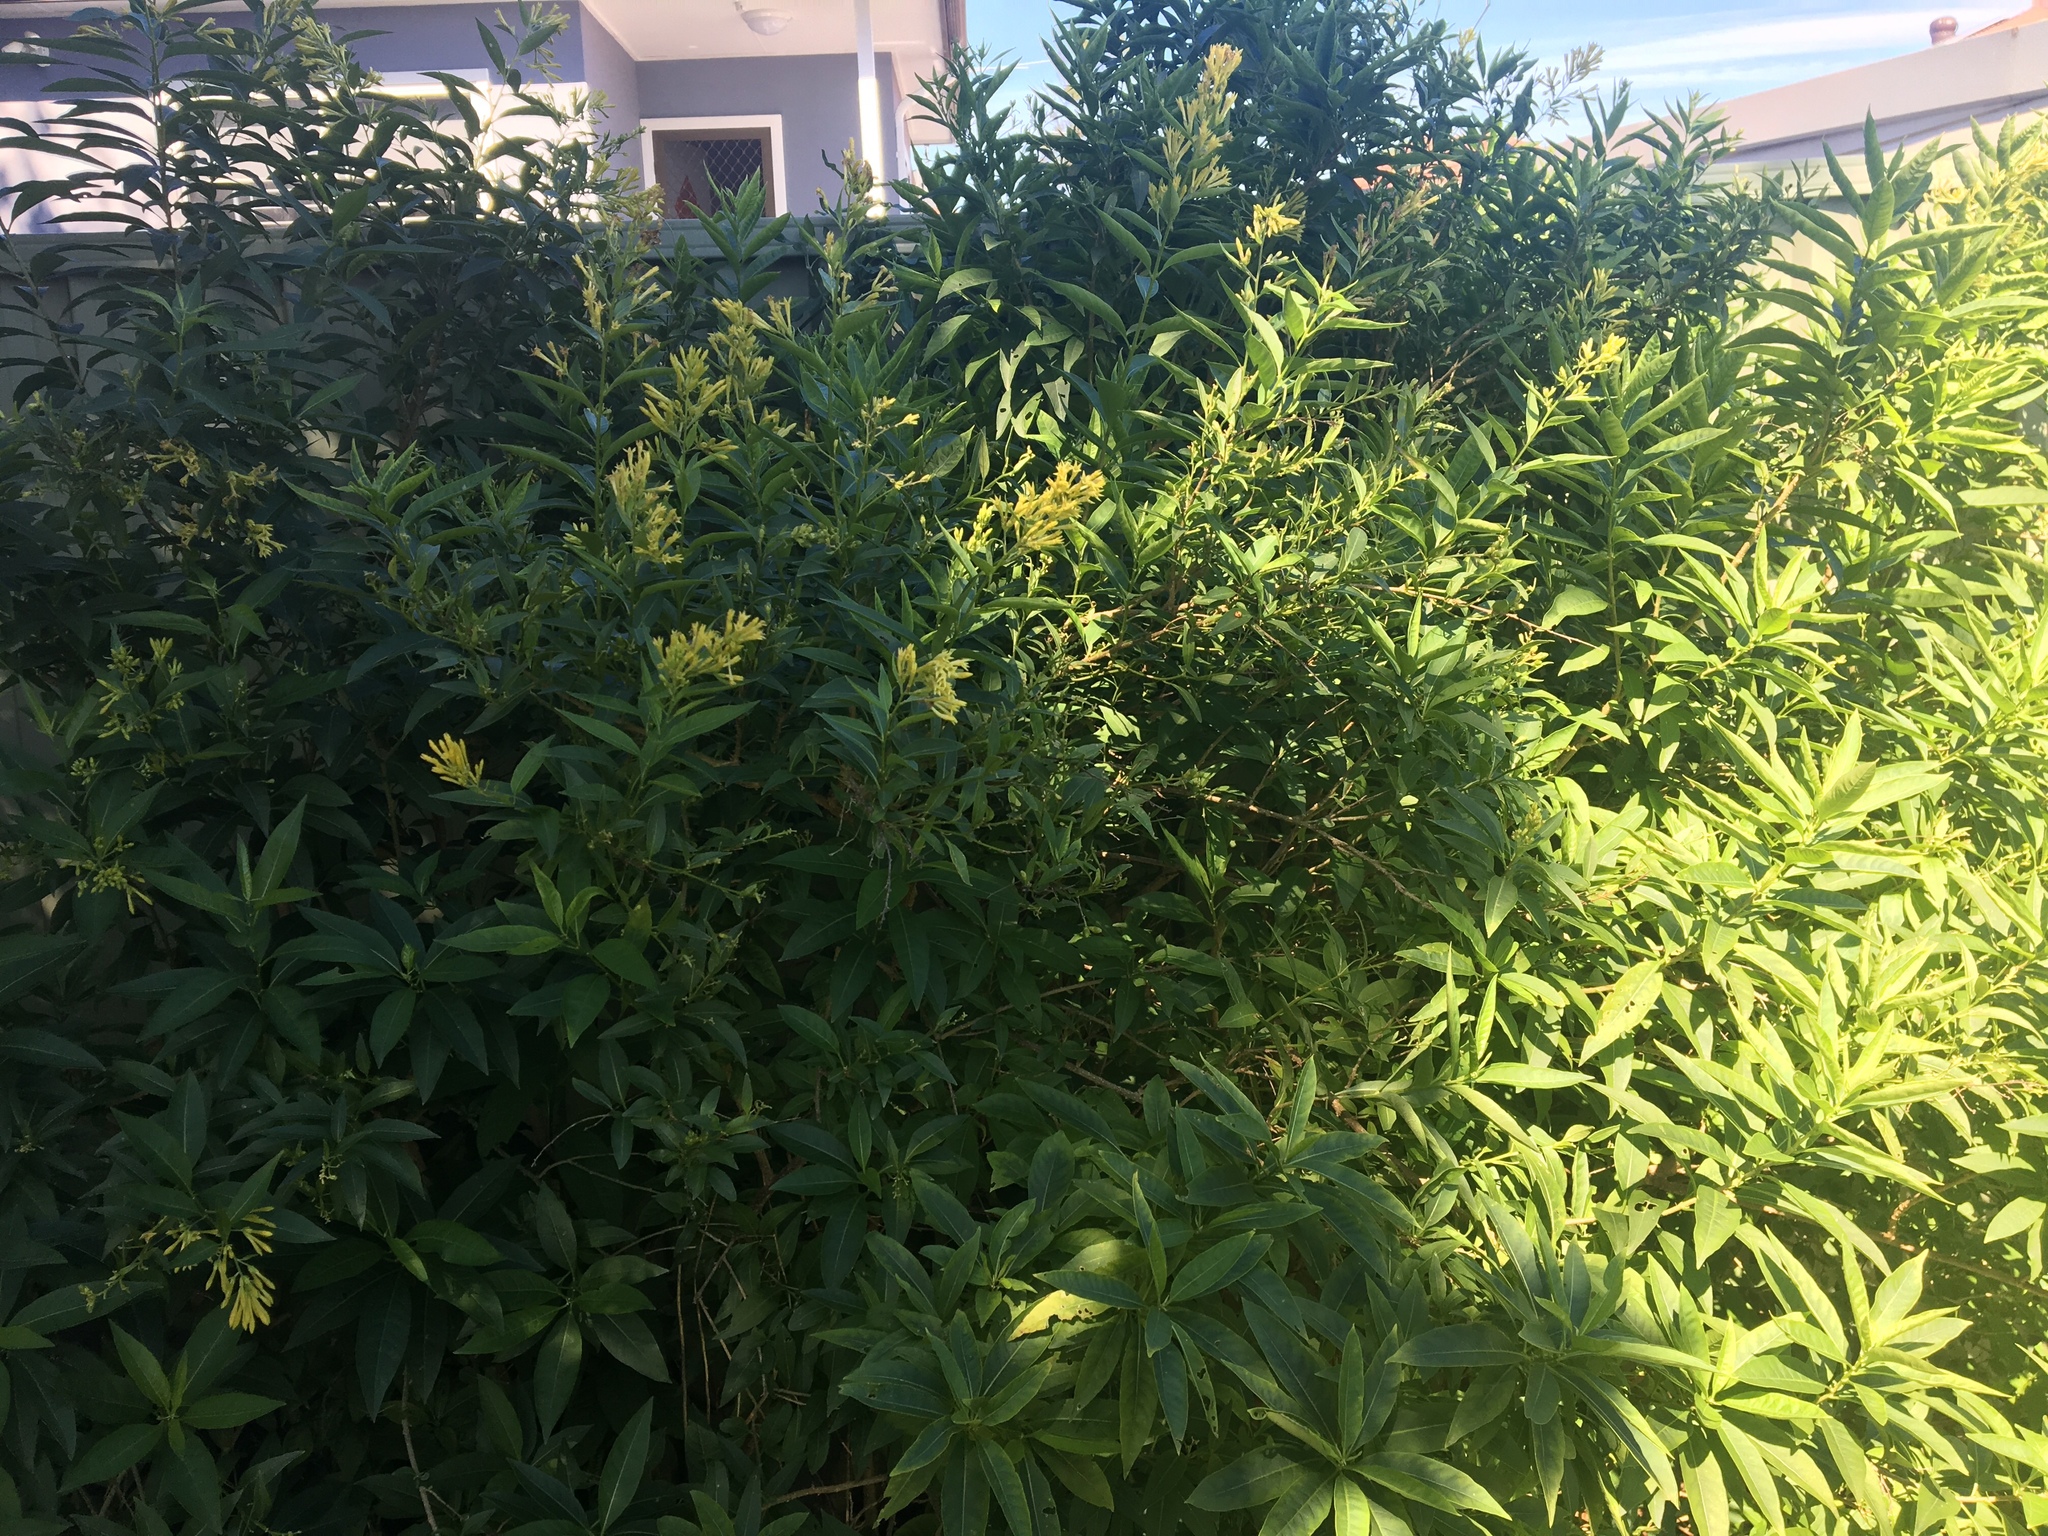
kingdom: Plantae
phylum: Tracheophyta
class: Magnoliopsida
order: Solanales
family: Solanaceae
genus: Cestrum
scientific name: Cestrum parqui
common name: Chilean cestrum
